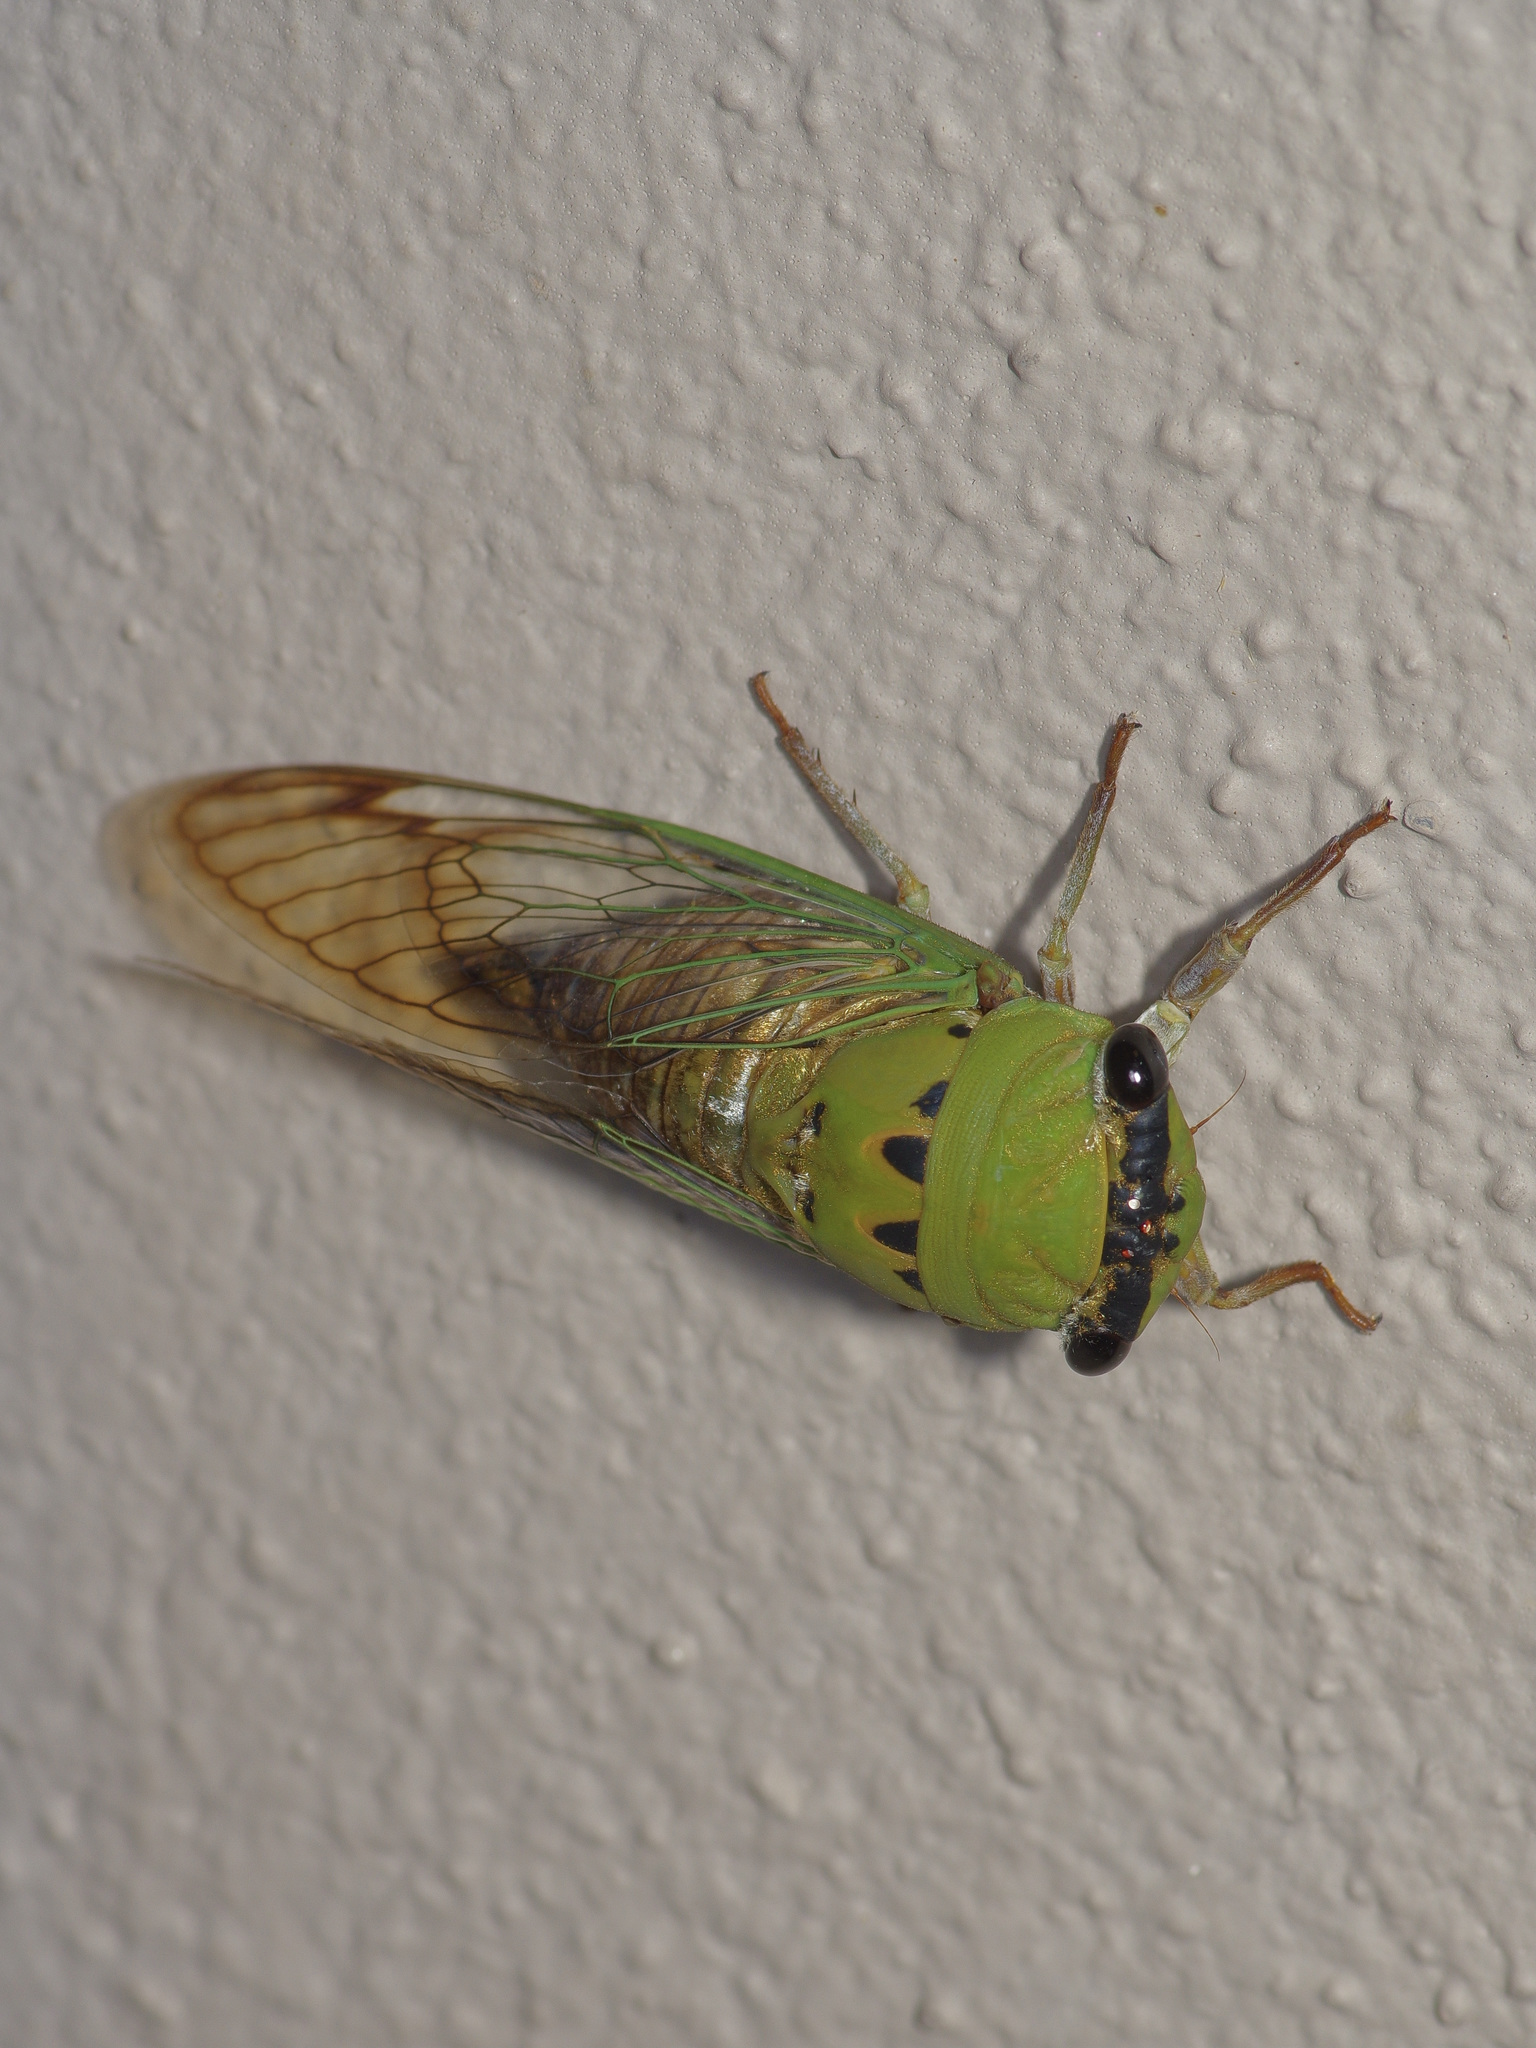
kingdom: Animalia
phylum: Arthropoda
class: Insecta
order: Hemiptera
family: Cicadidae
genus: Neotibicen
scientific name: Neotibicen superbus
